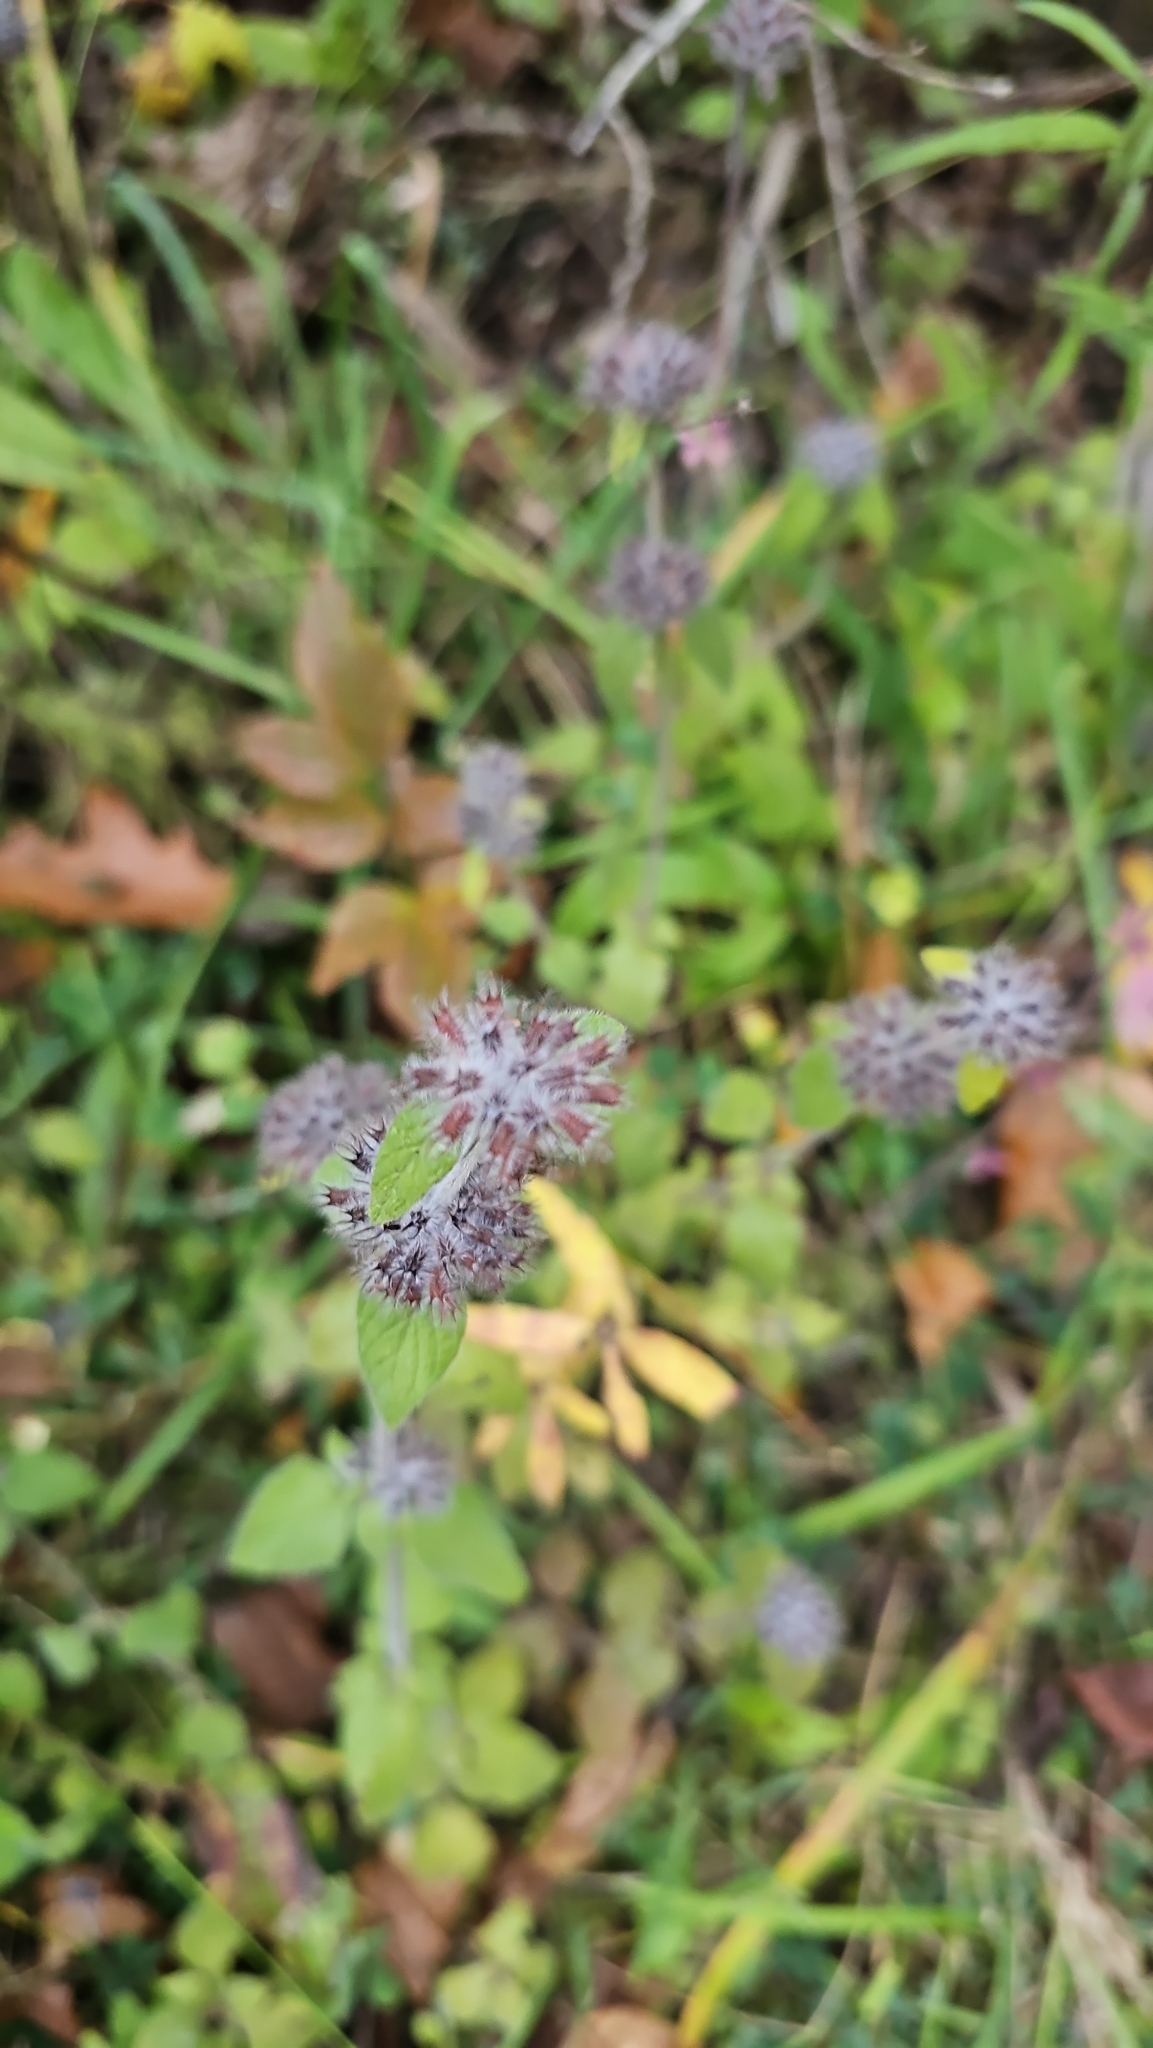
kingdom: Plantae
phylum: Tracheophyta
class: Magnoliopsida
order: Lamiales
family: Lamiaceae
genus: Clinopodium
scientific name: Clinopodium vulgare
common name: Wild basil
